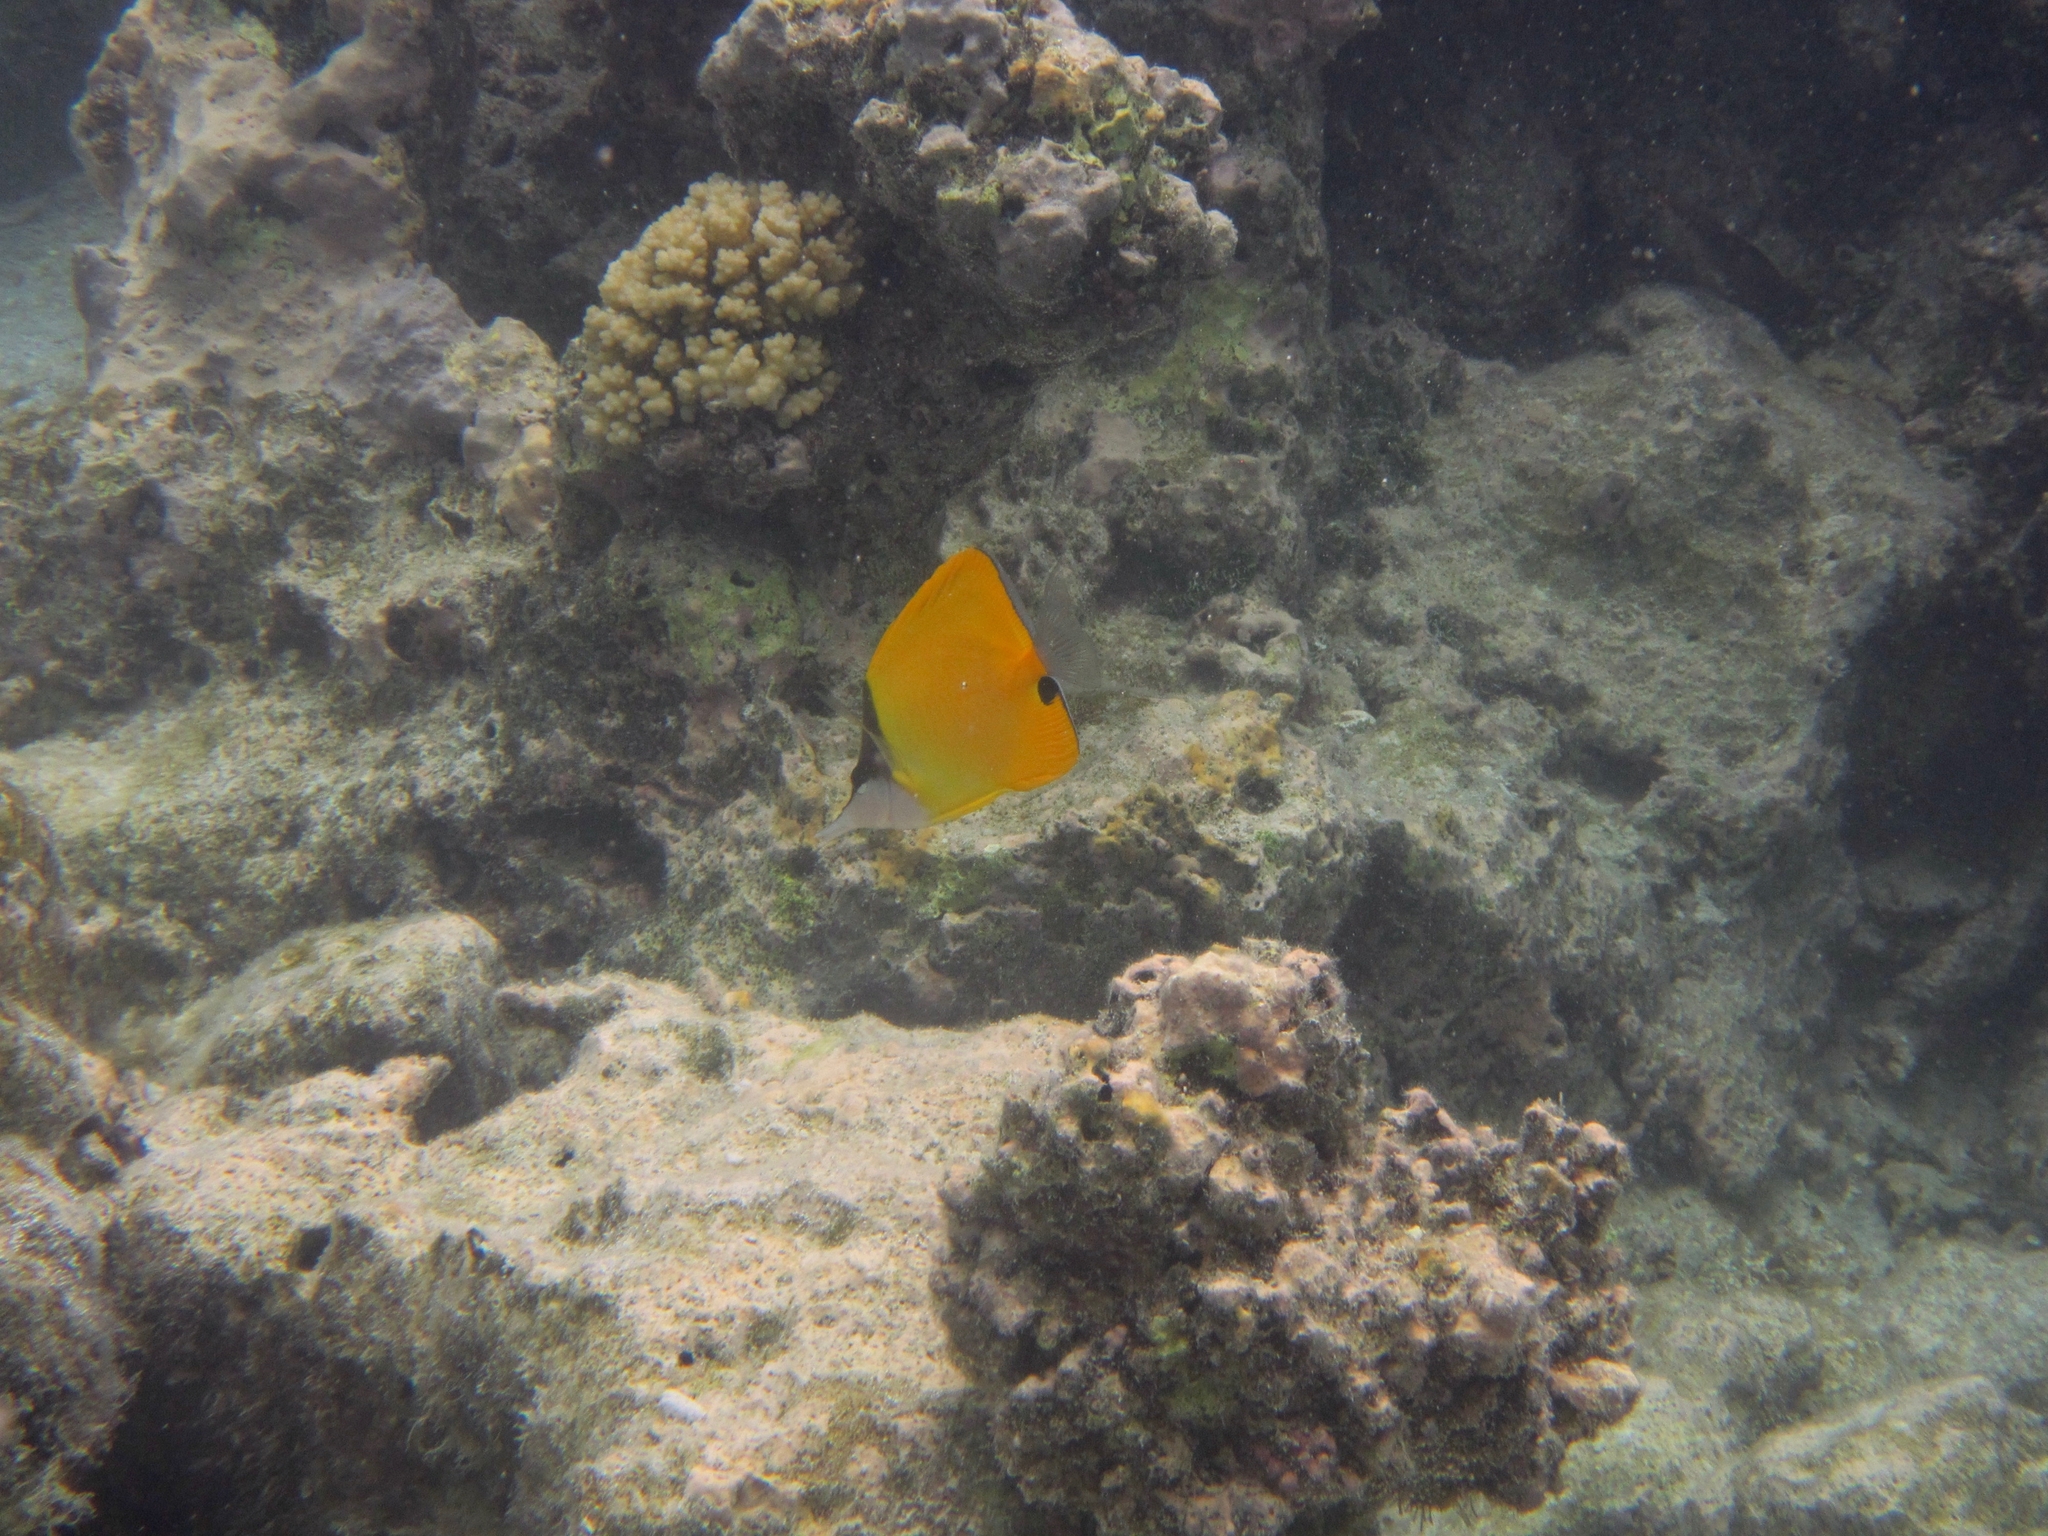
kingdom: Animalia
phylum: Chordata
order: Perciformes
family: Chaetodontidae
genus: Forcipiger
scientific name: Forcipiger flavissimus
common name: Forcepsfish
